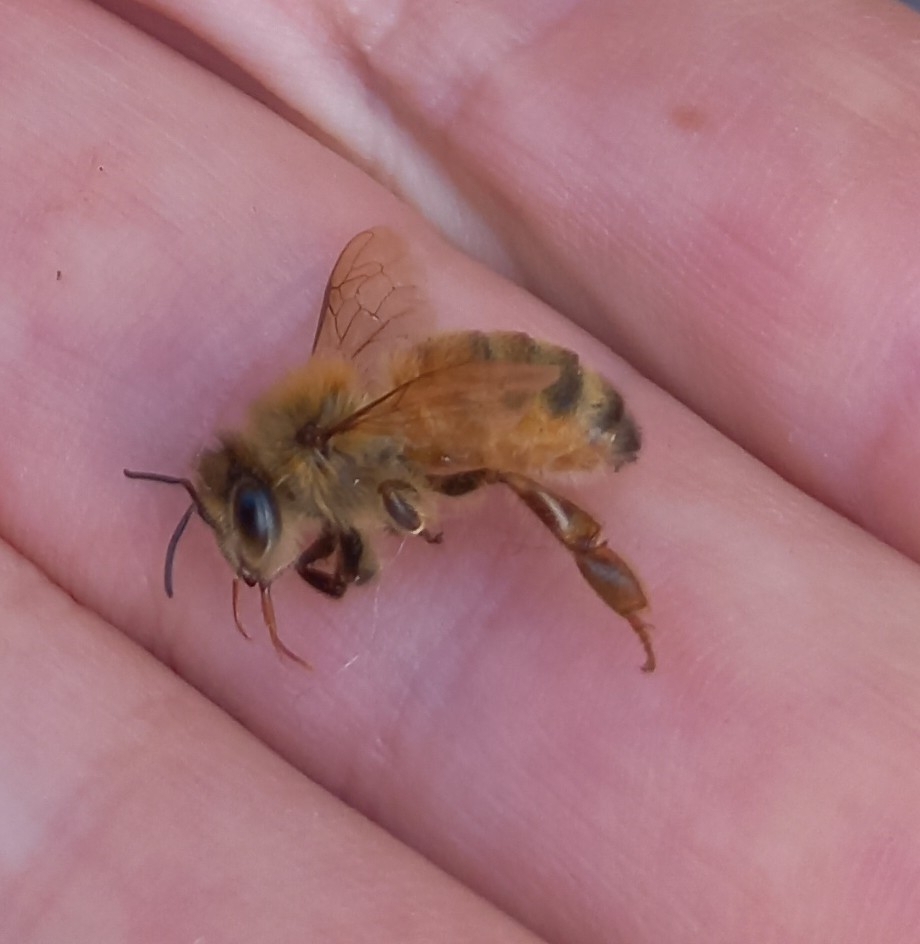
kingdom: Animalia
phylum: Arthropoda
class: Insecta
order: Hymenoptera
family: Apidae
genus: Apis
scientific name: Apis mellifera
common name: Honey bee
